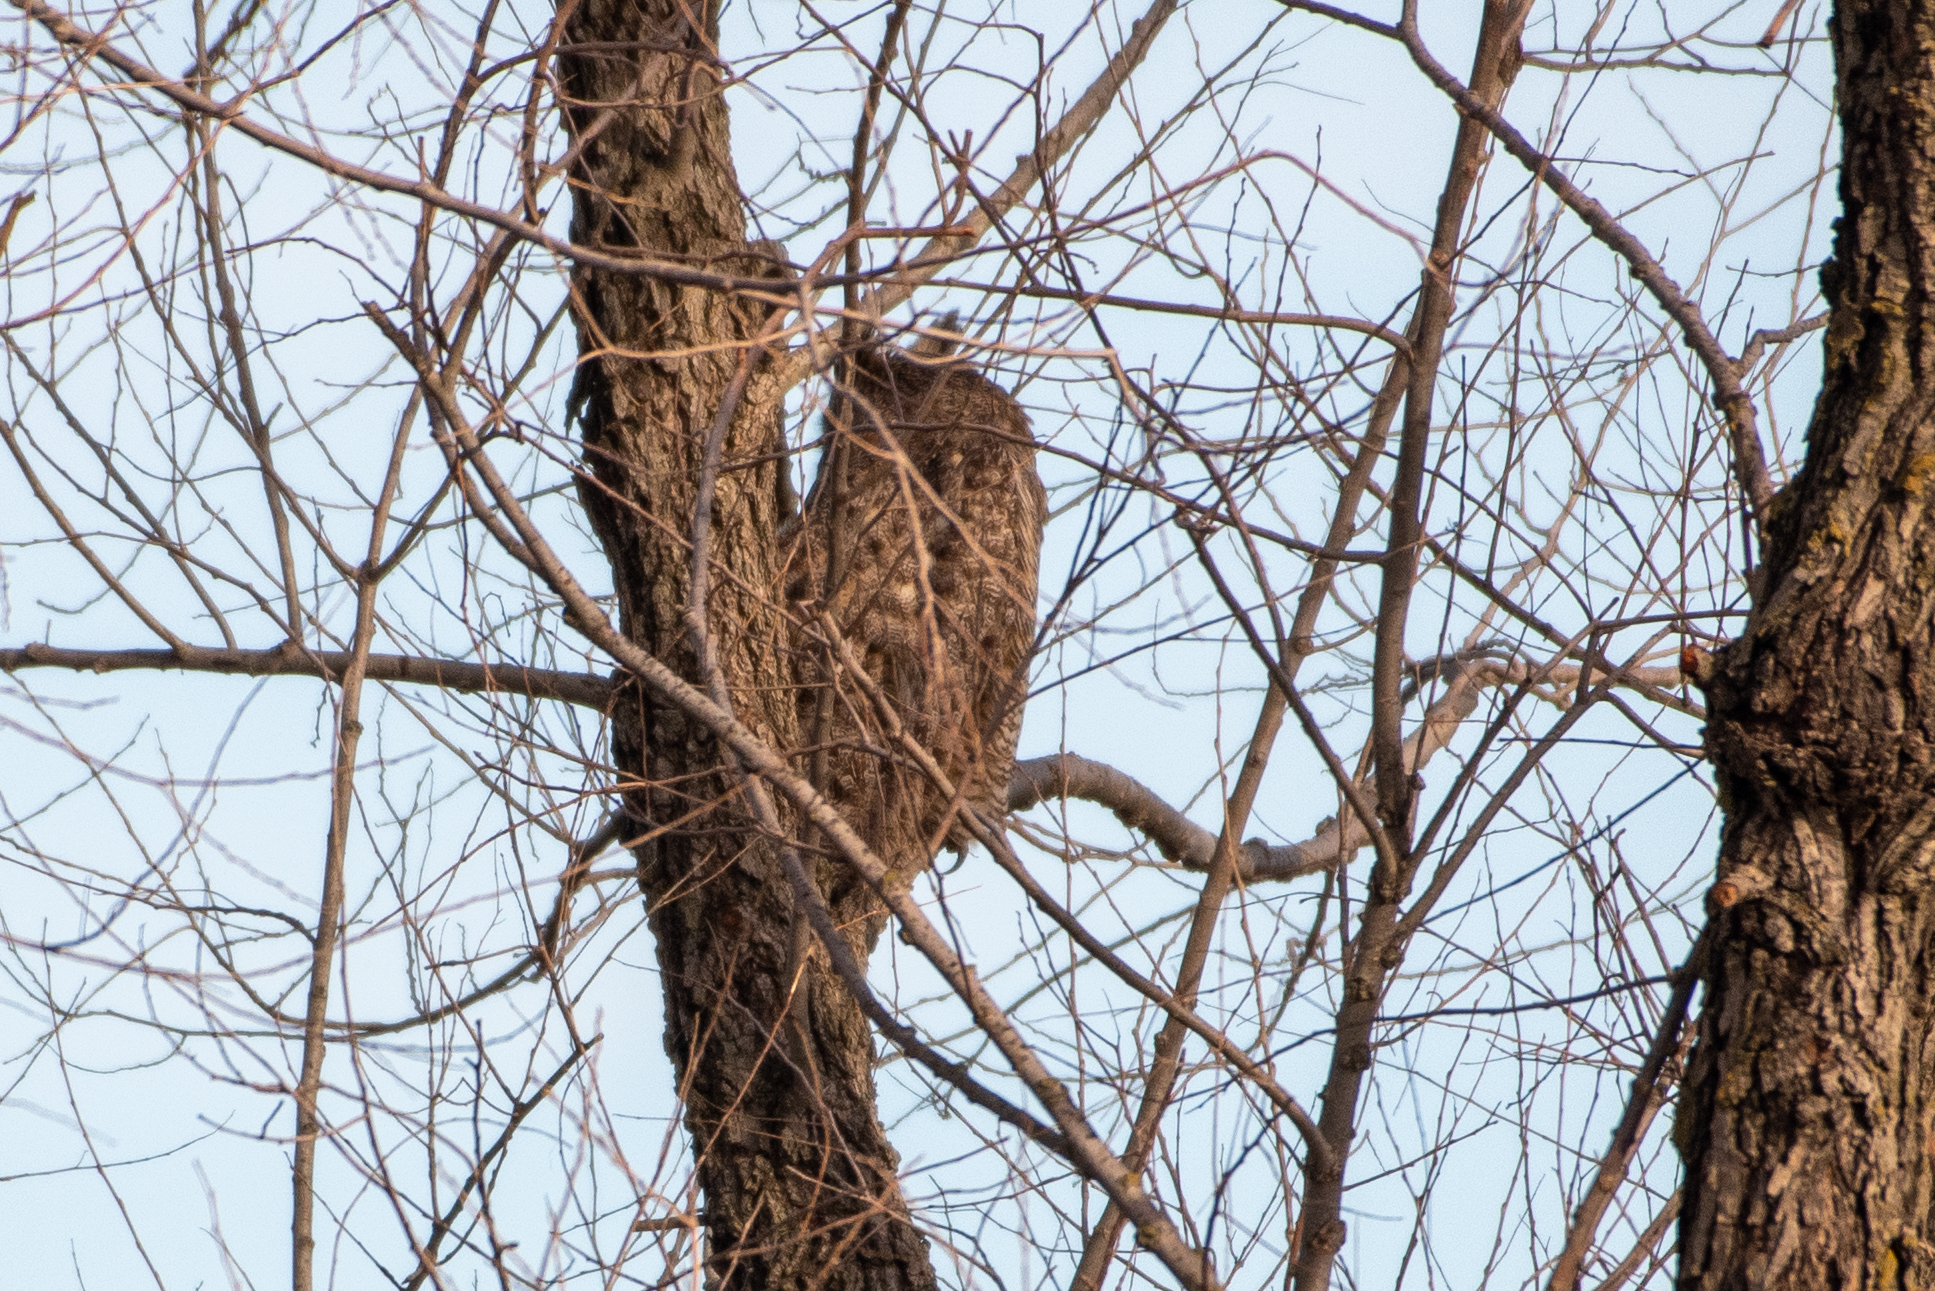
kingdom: Animalia
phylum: Chordata
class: Aves
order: Strigiformes
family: Strigidae
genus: Bubo
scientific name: Bubo virginianus
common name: Great horned owl
